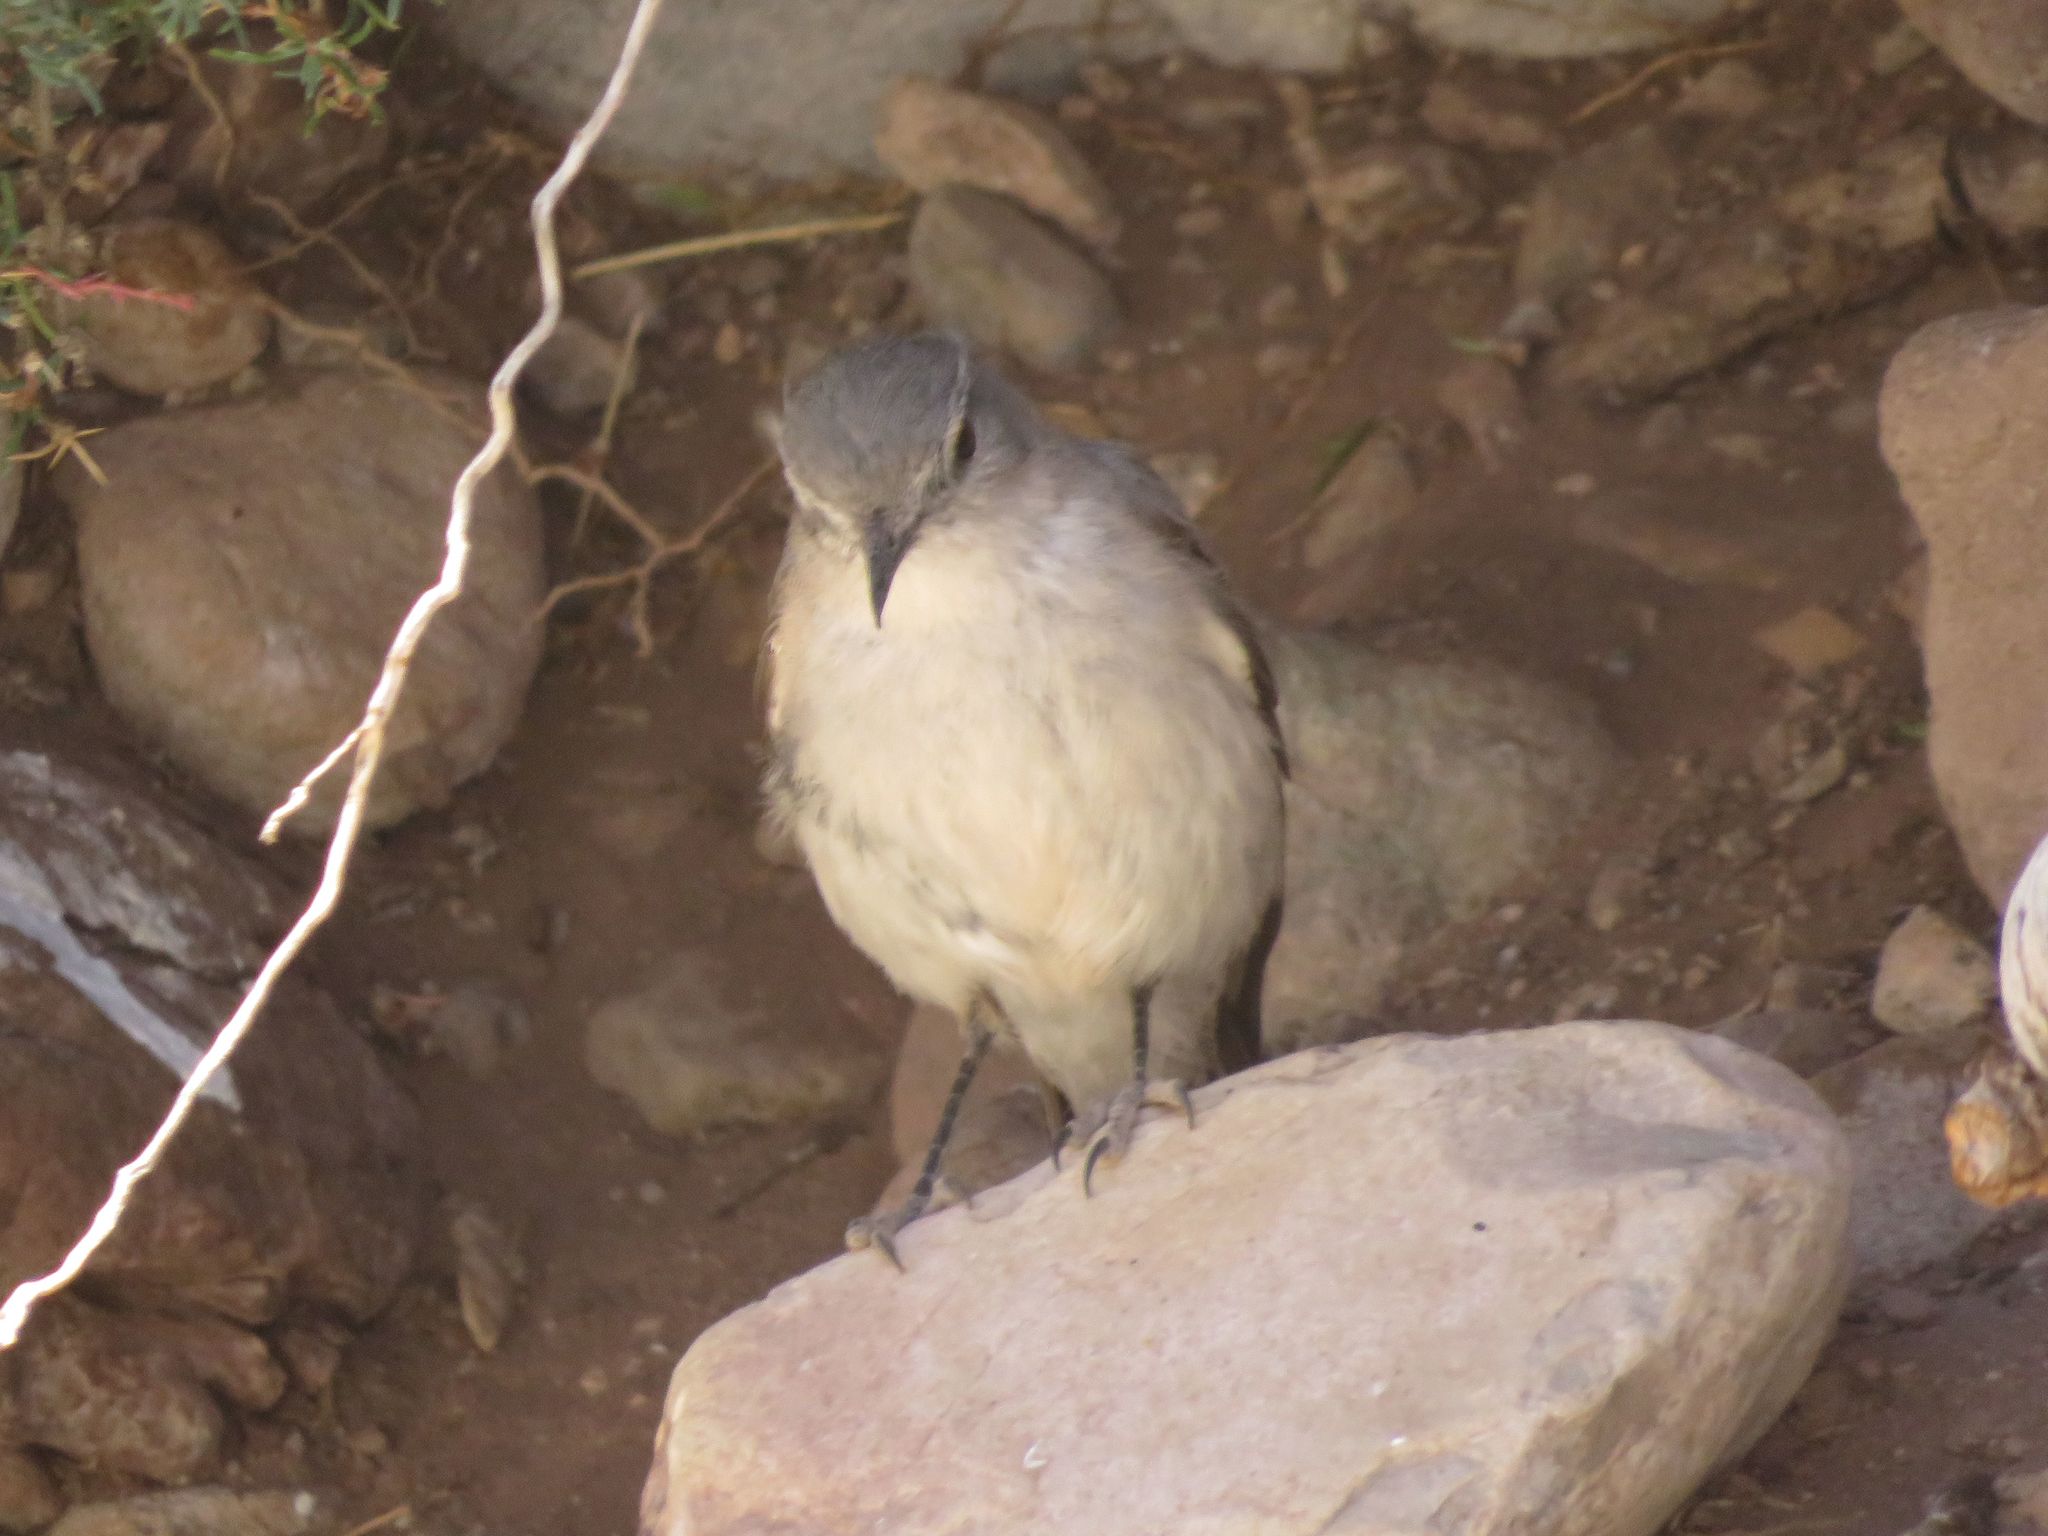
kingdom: Animalia
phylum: Chordata
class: Aves
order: Passeriformes
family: Tyrannidae
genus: Muscisaxicola
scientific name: Muscisaxicola cinereus
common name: Cinereous ground tyrant
